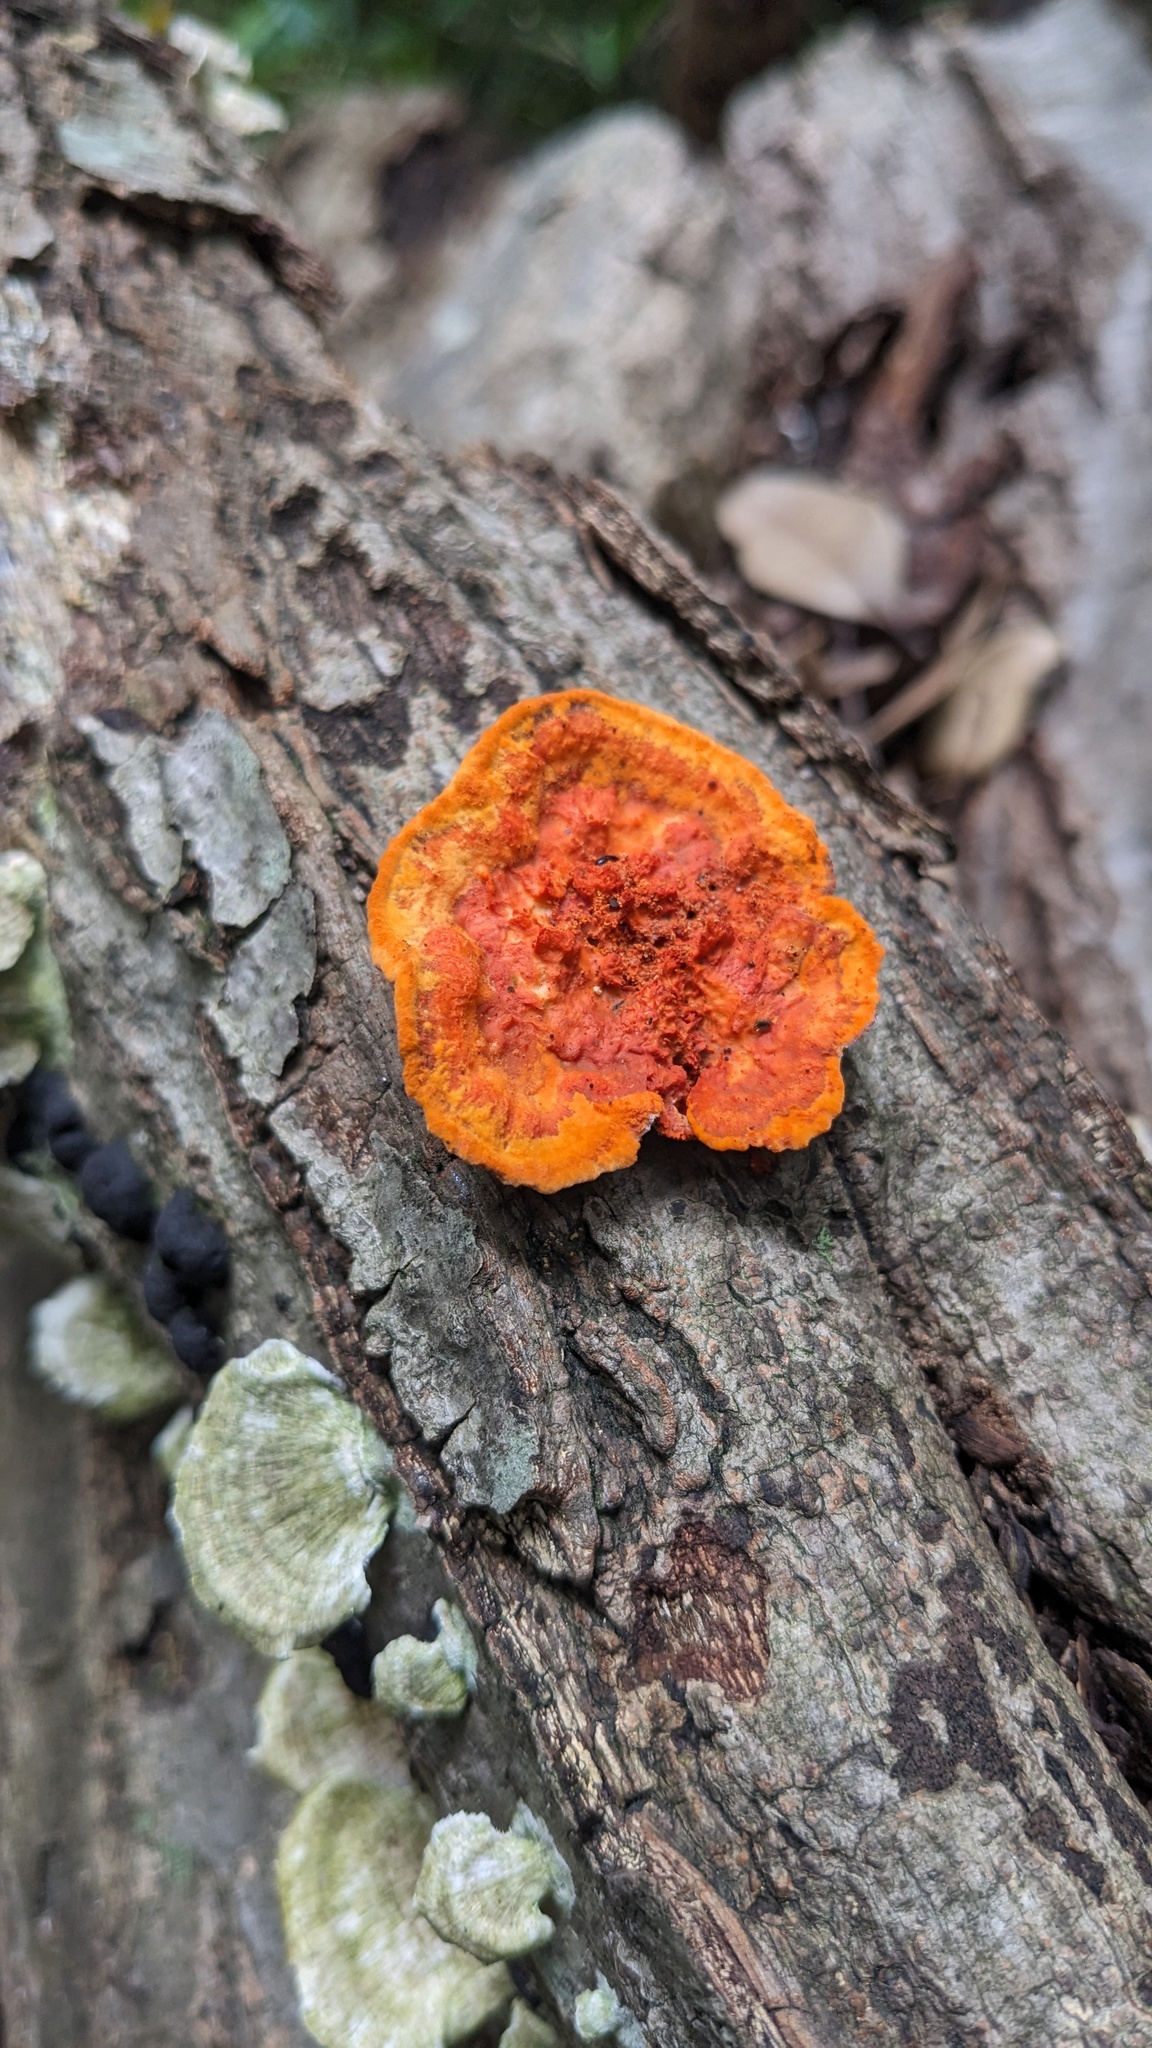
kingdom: Fungi
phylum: Basidiomycota
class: Agaricomycetes
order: Polyporales
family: Polyporaceae
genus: Trametes
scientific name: Trametes coccinea
